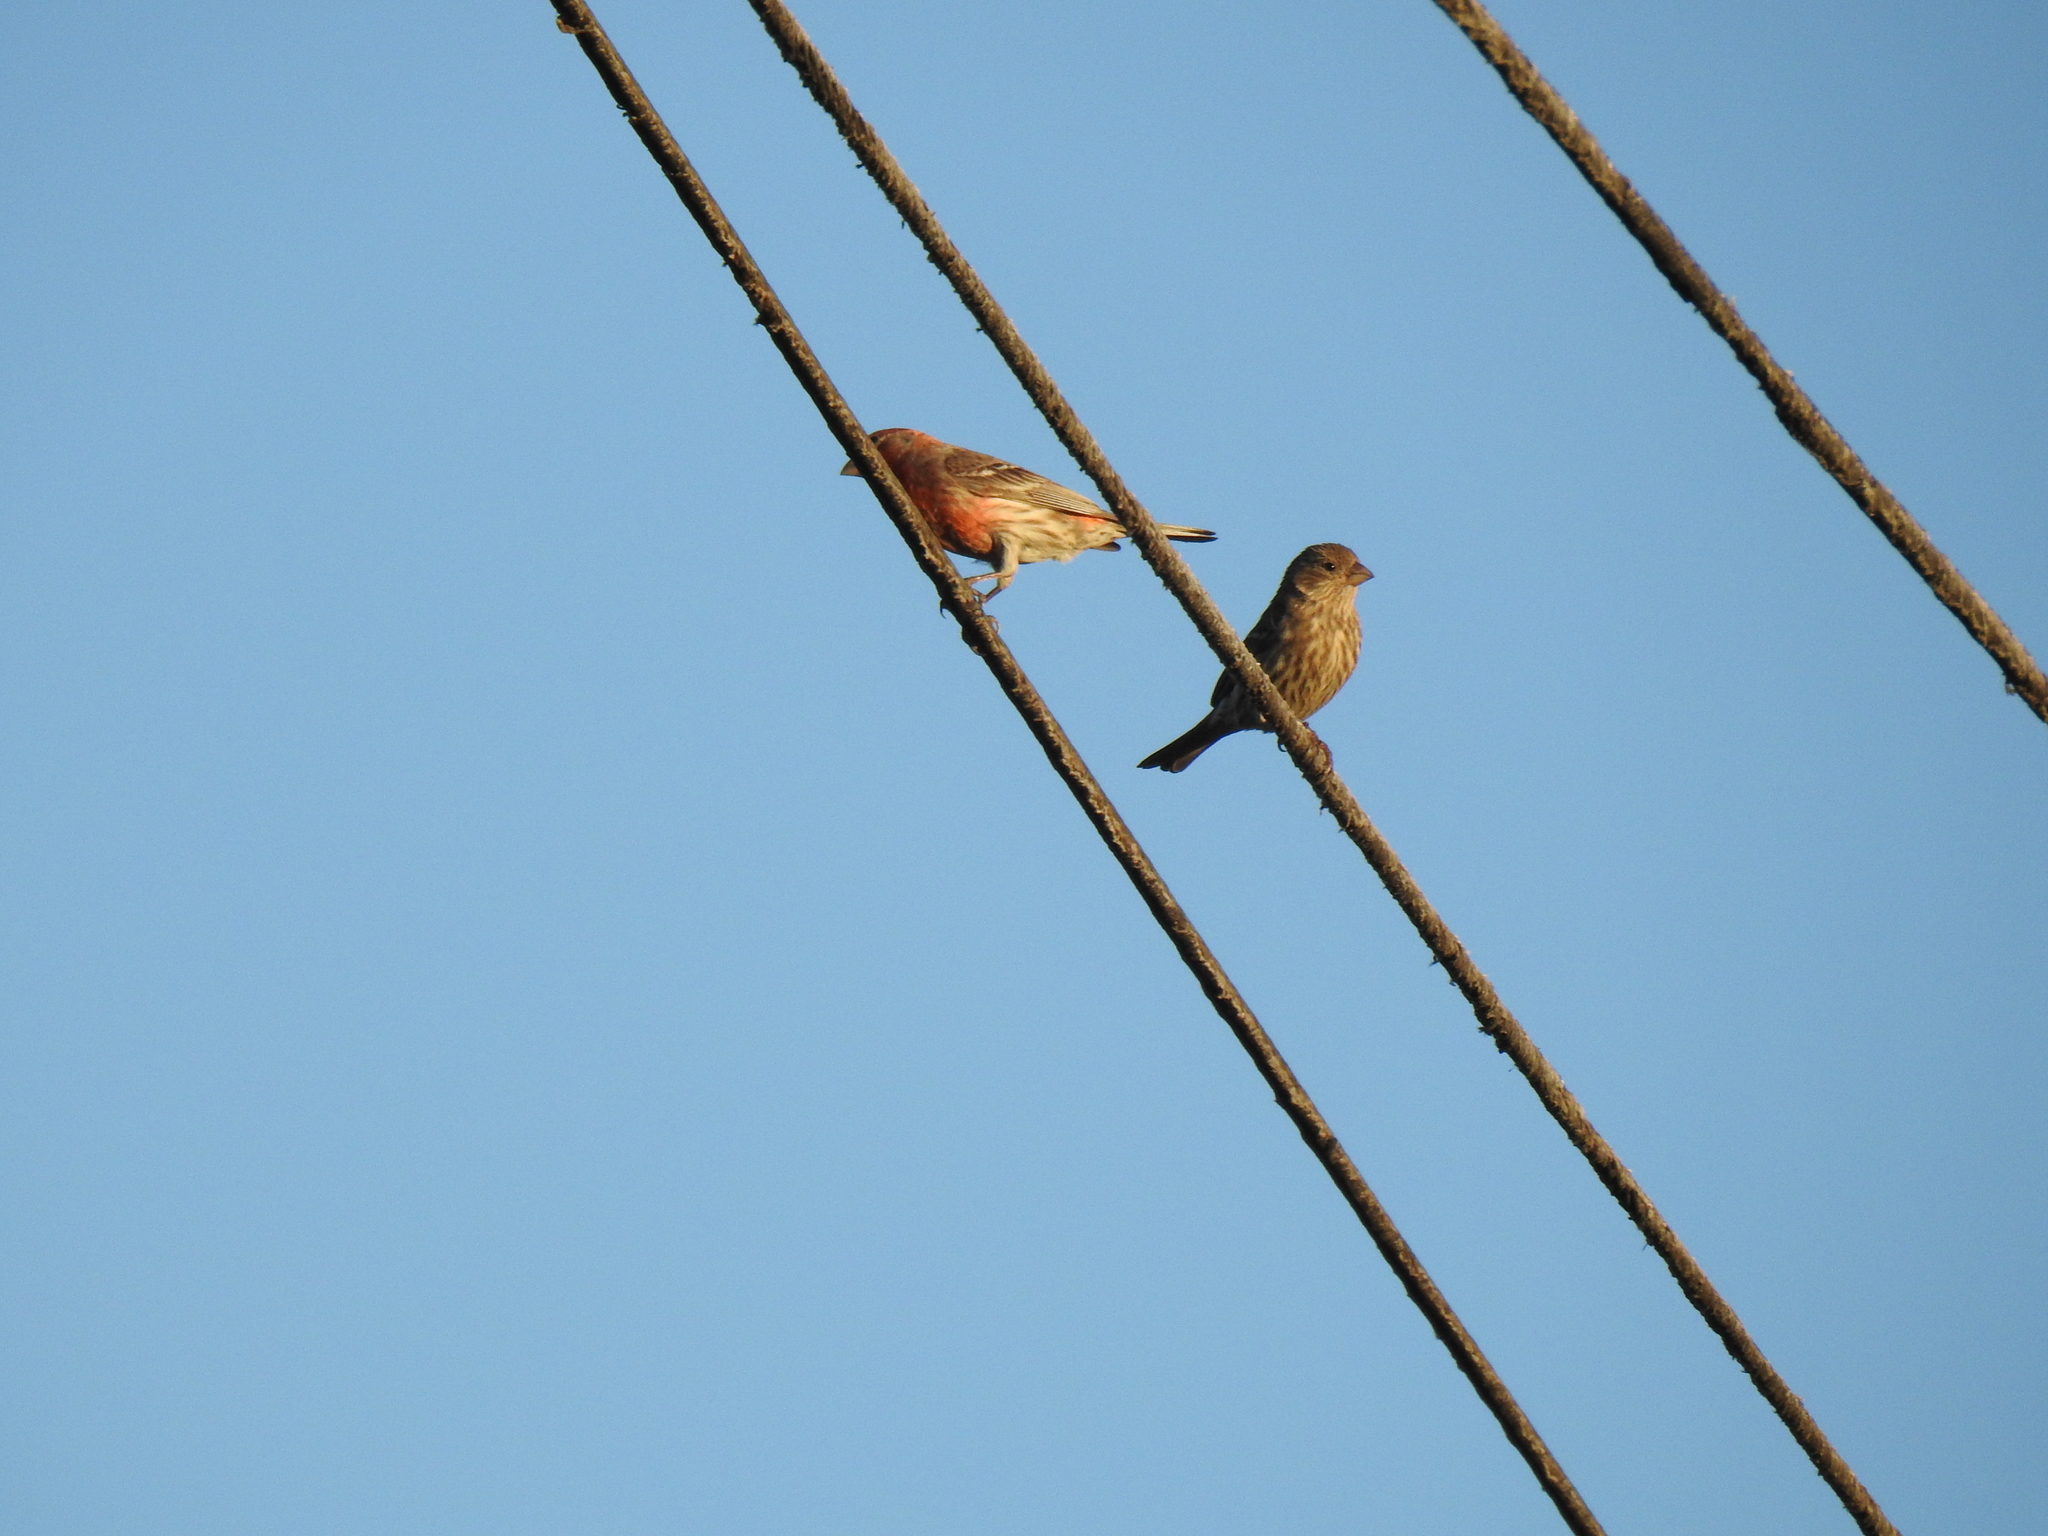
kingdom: Animalia
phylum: Chordata
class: Aves
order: Passeriformes
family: Fringillidae
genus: Haemorhous
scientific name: Haemorhous mexicanus
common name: House finch
